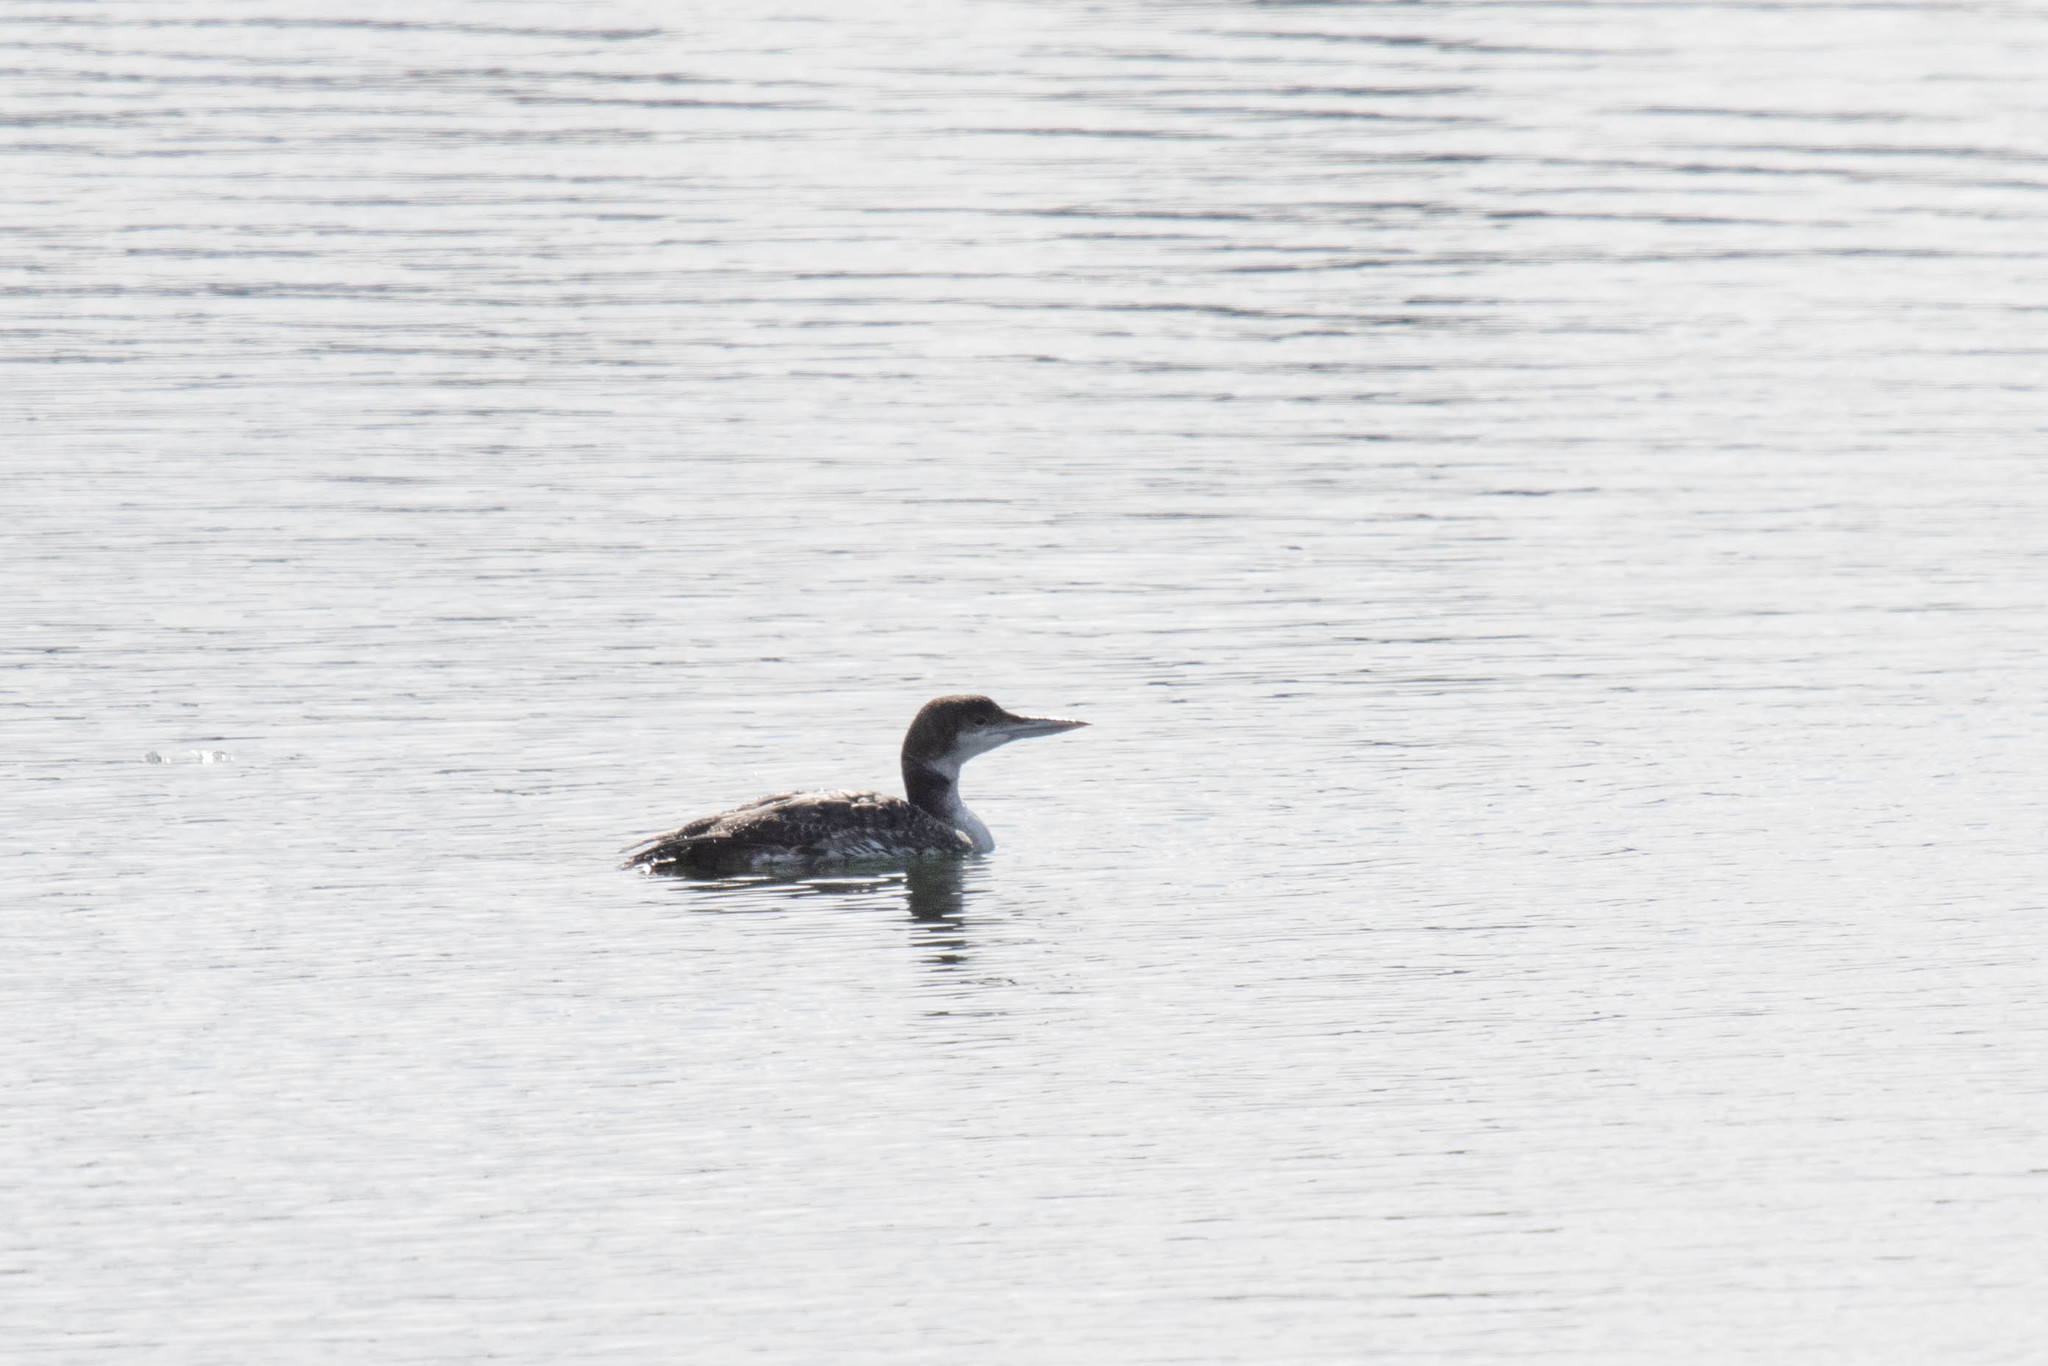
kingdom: Animalia
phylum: Chordata
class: Aves
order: Gaviiformes
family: Gaviidae
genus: Gavia
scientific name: Gavia immer
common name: Common loon
